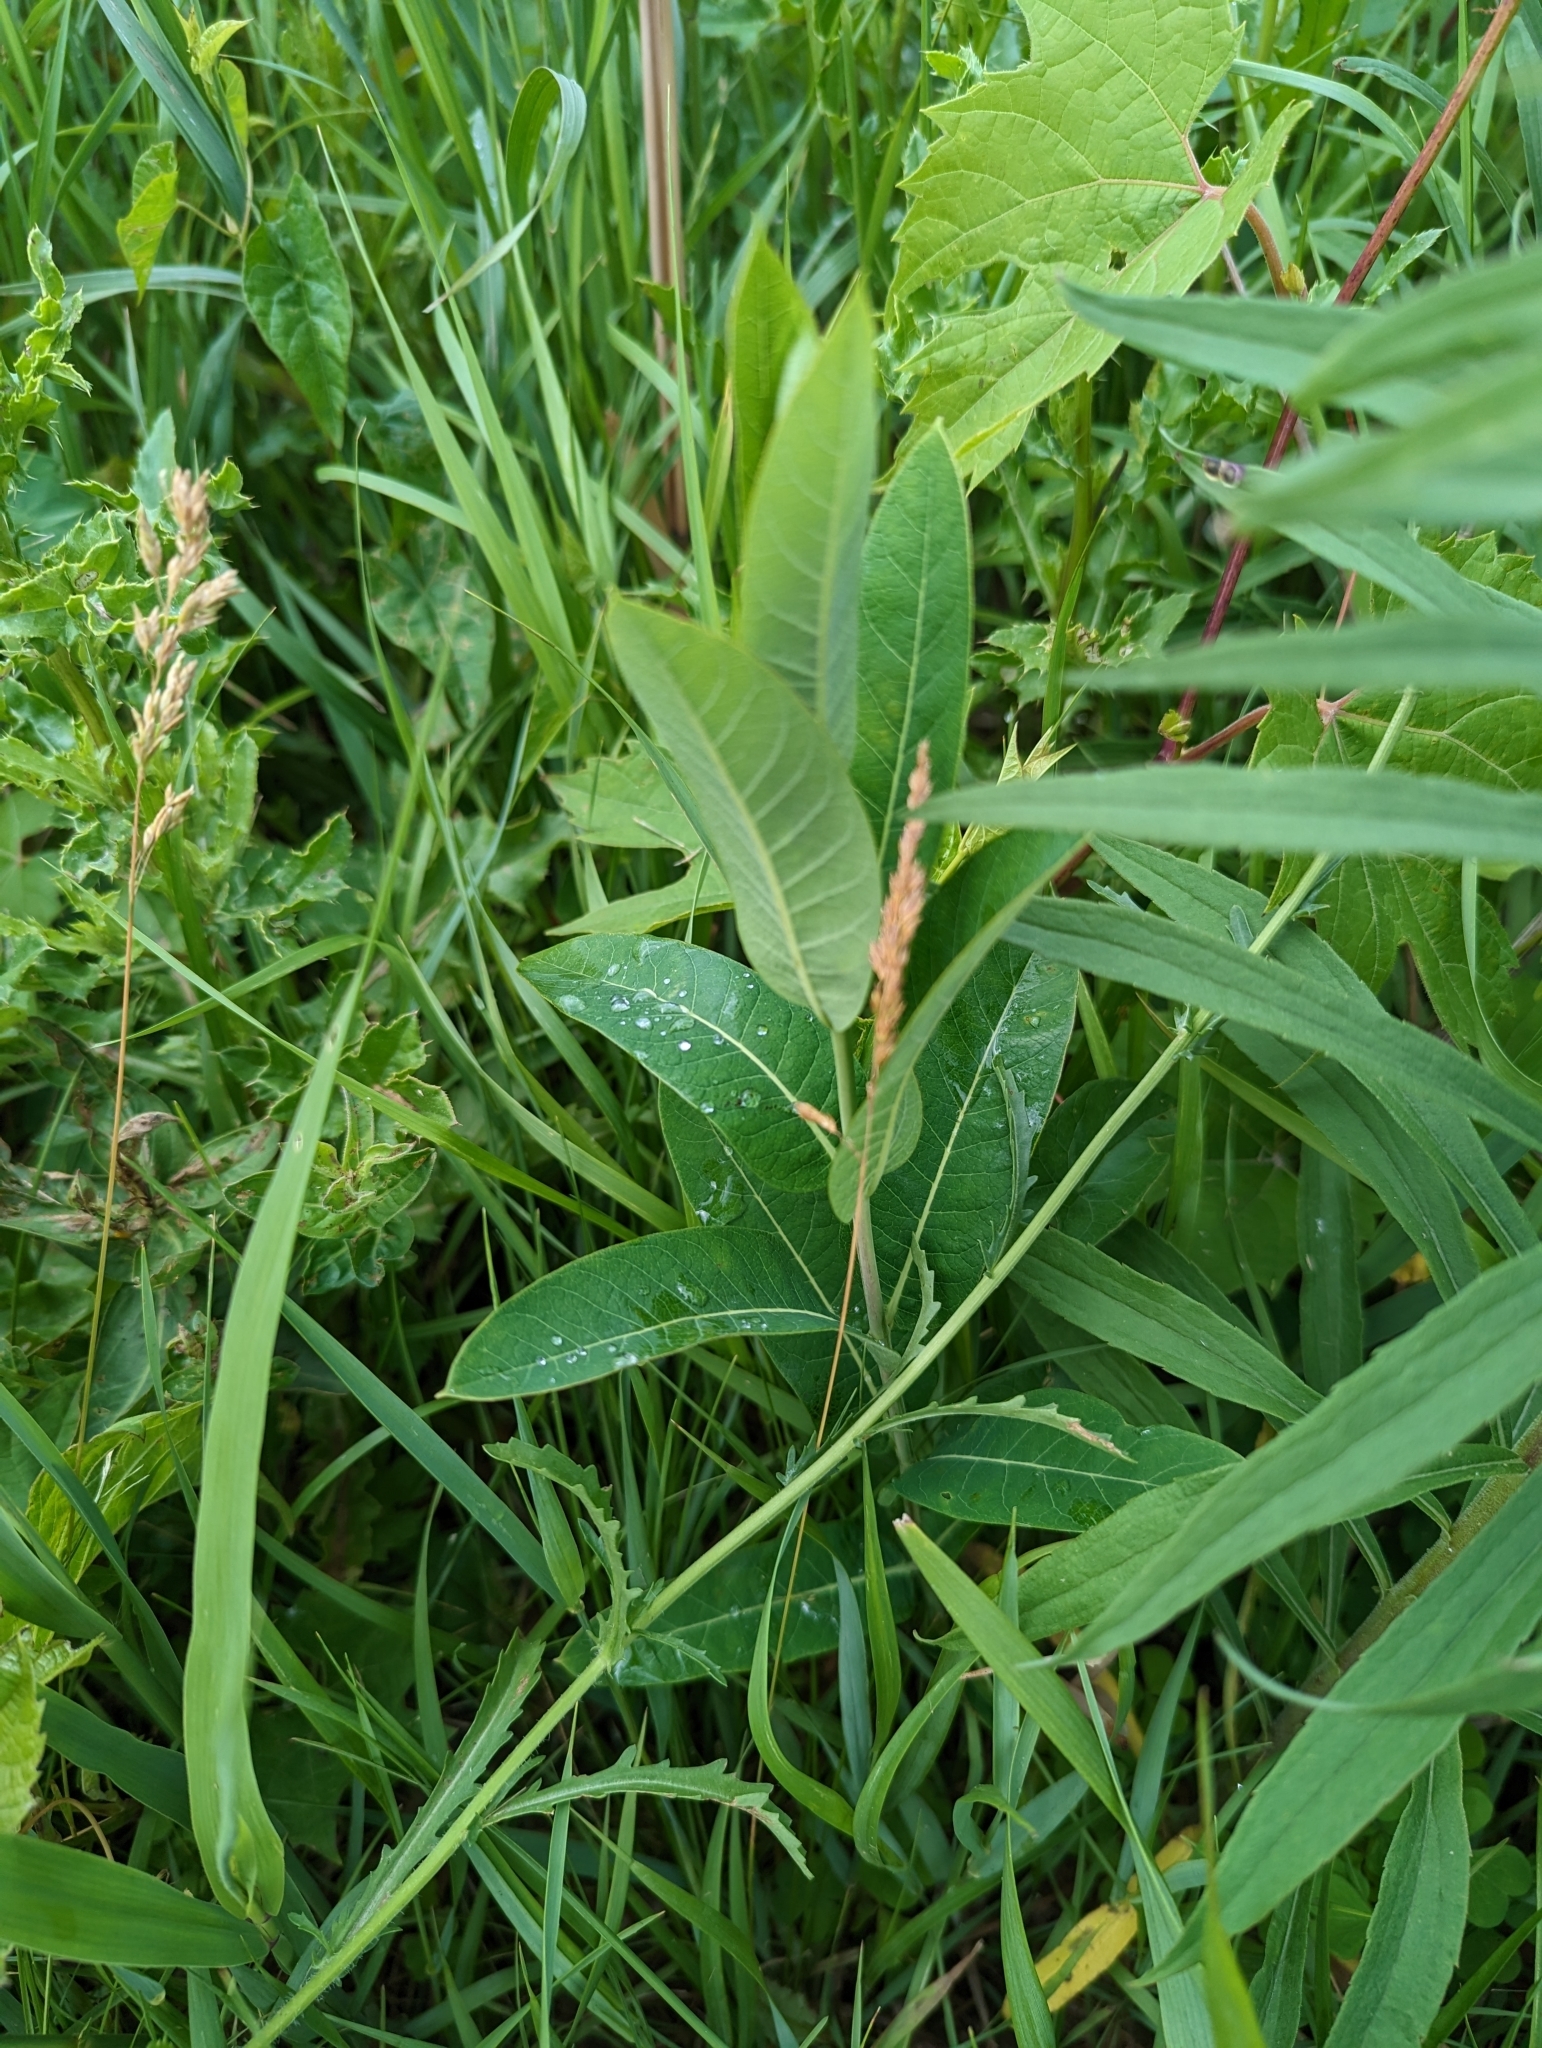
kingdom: Plantae
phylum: Tracheophyta
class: Magnoliopsida
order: Gentianales
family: Apocynaceae
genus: Apocynum
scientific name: Apocynum cannabinum
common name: Hemp dogbane
